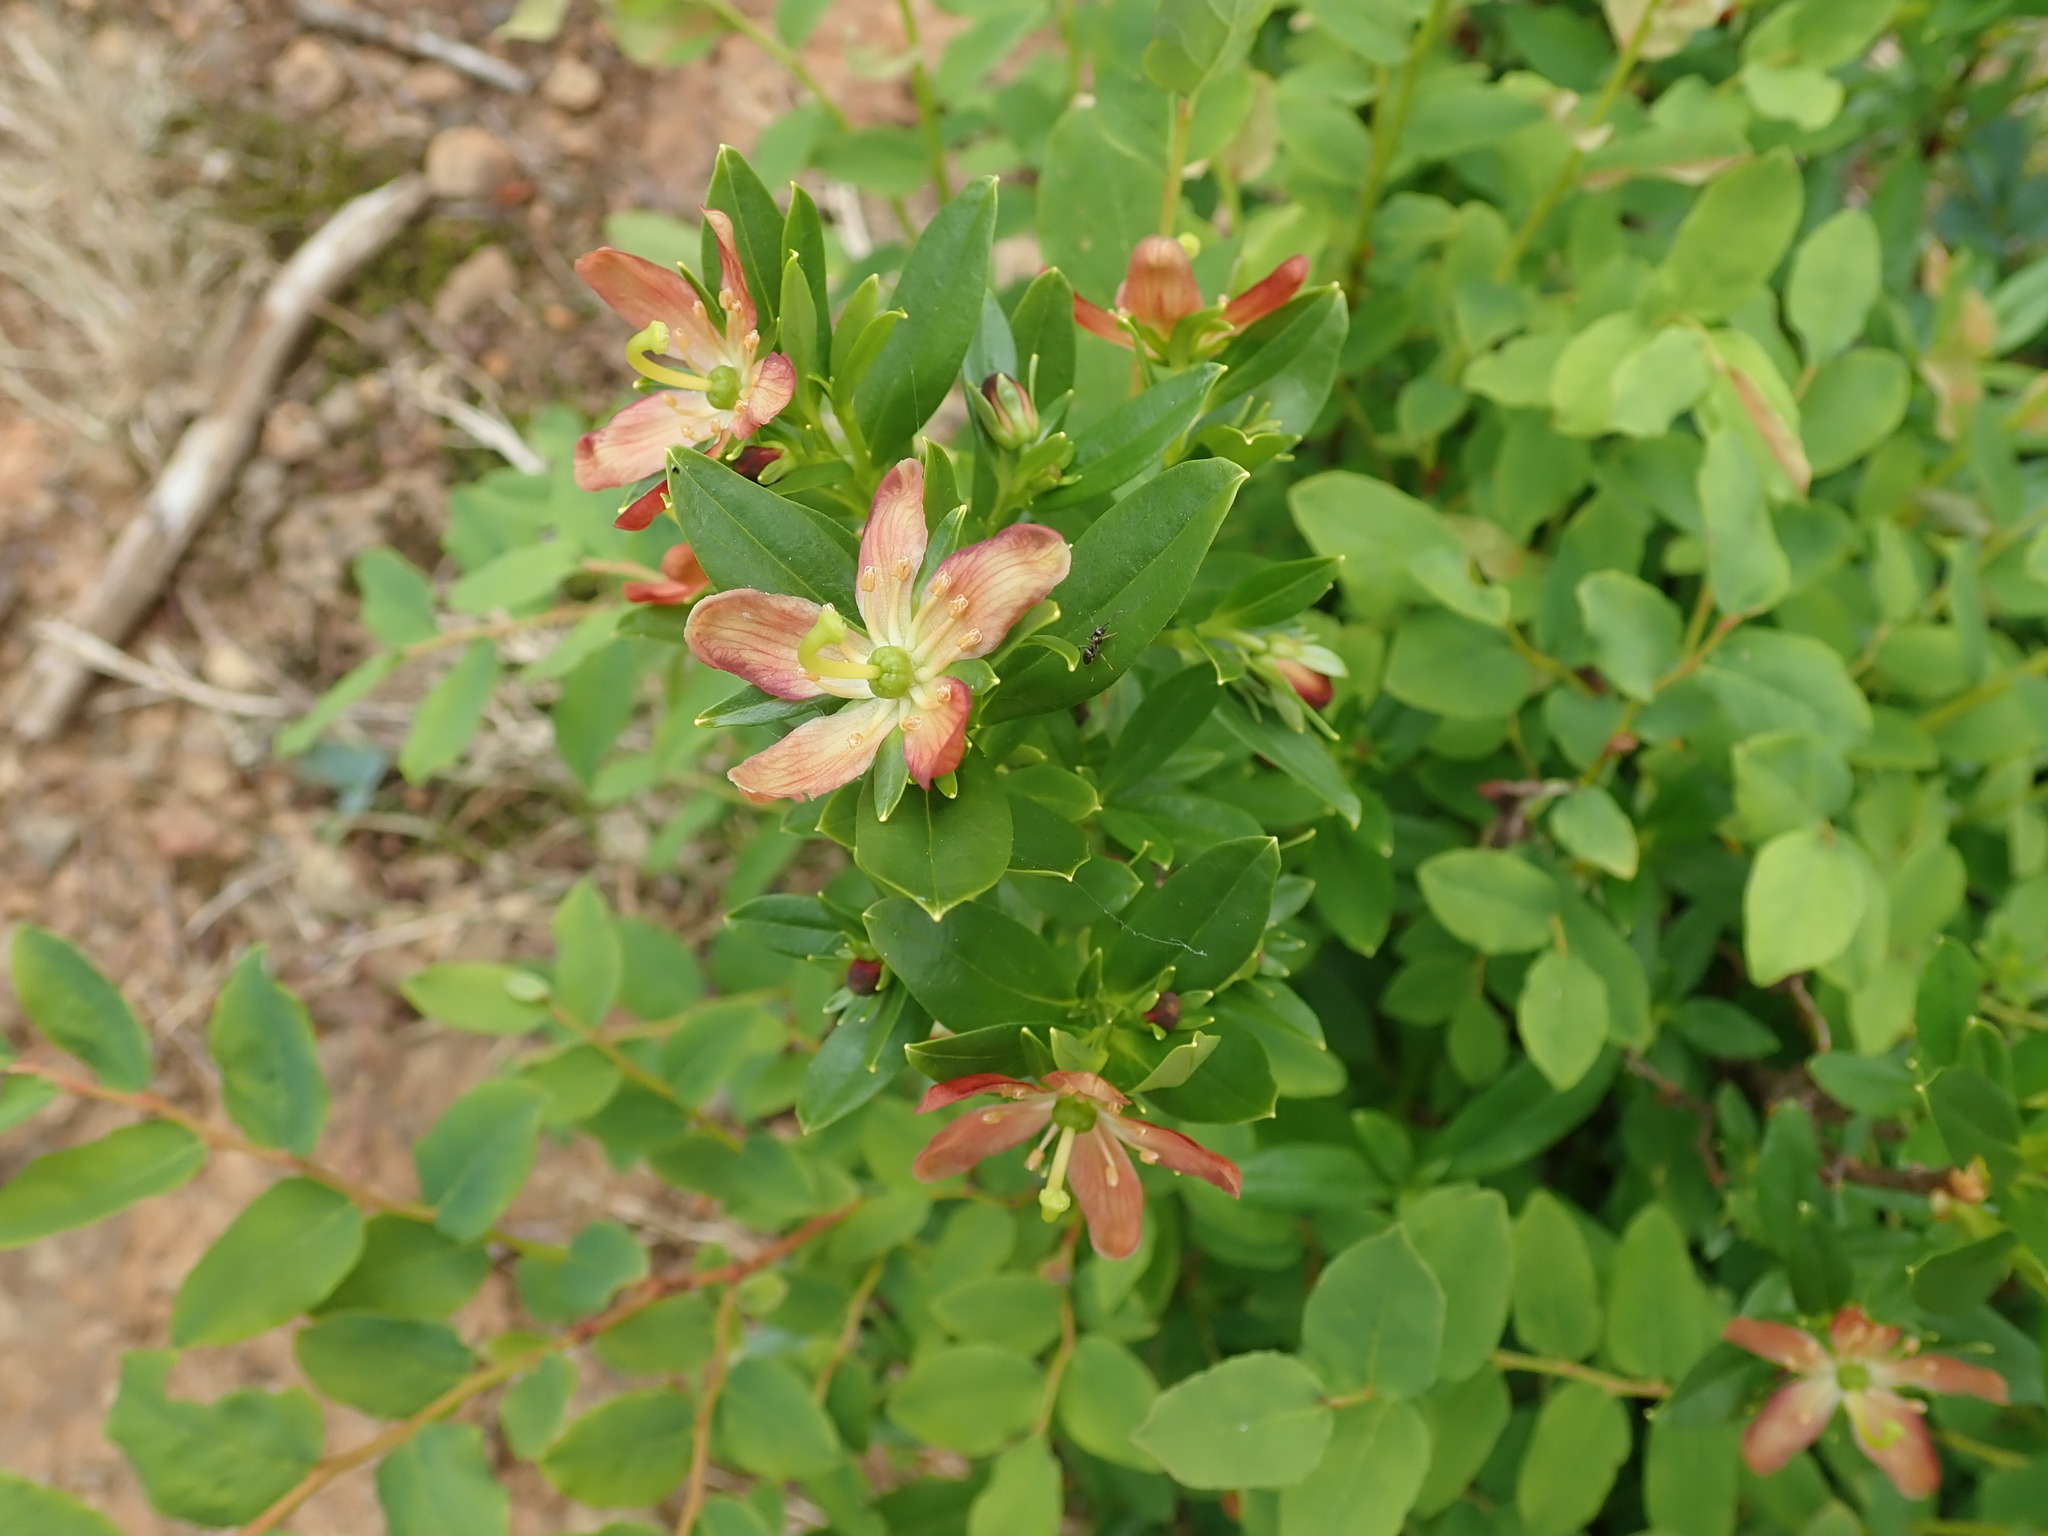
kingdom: Plantae
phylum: Tracheophyta
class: Magnoliopsida
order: Ericales
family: Ericaceae
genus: Elliottia
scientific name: Elliottia pyroliflora
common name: Copperbush
